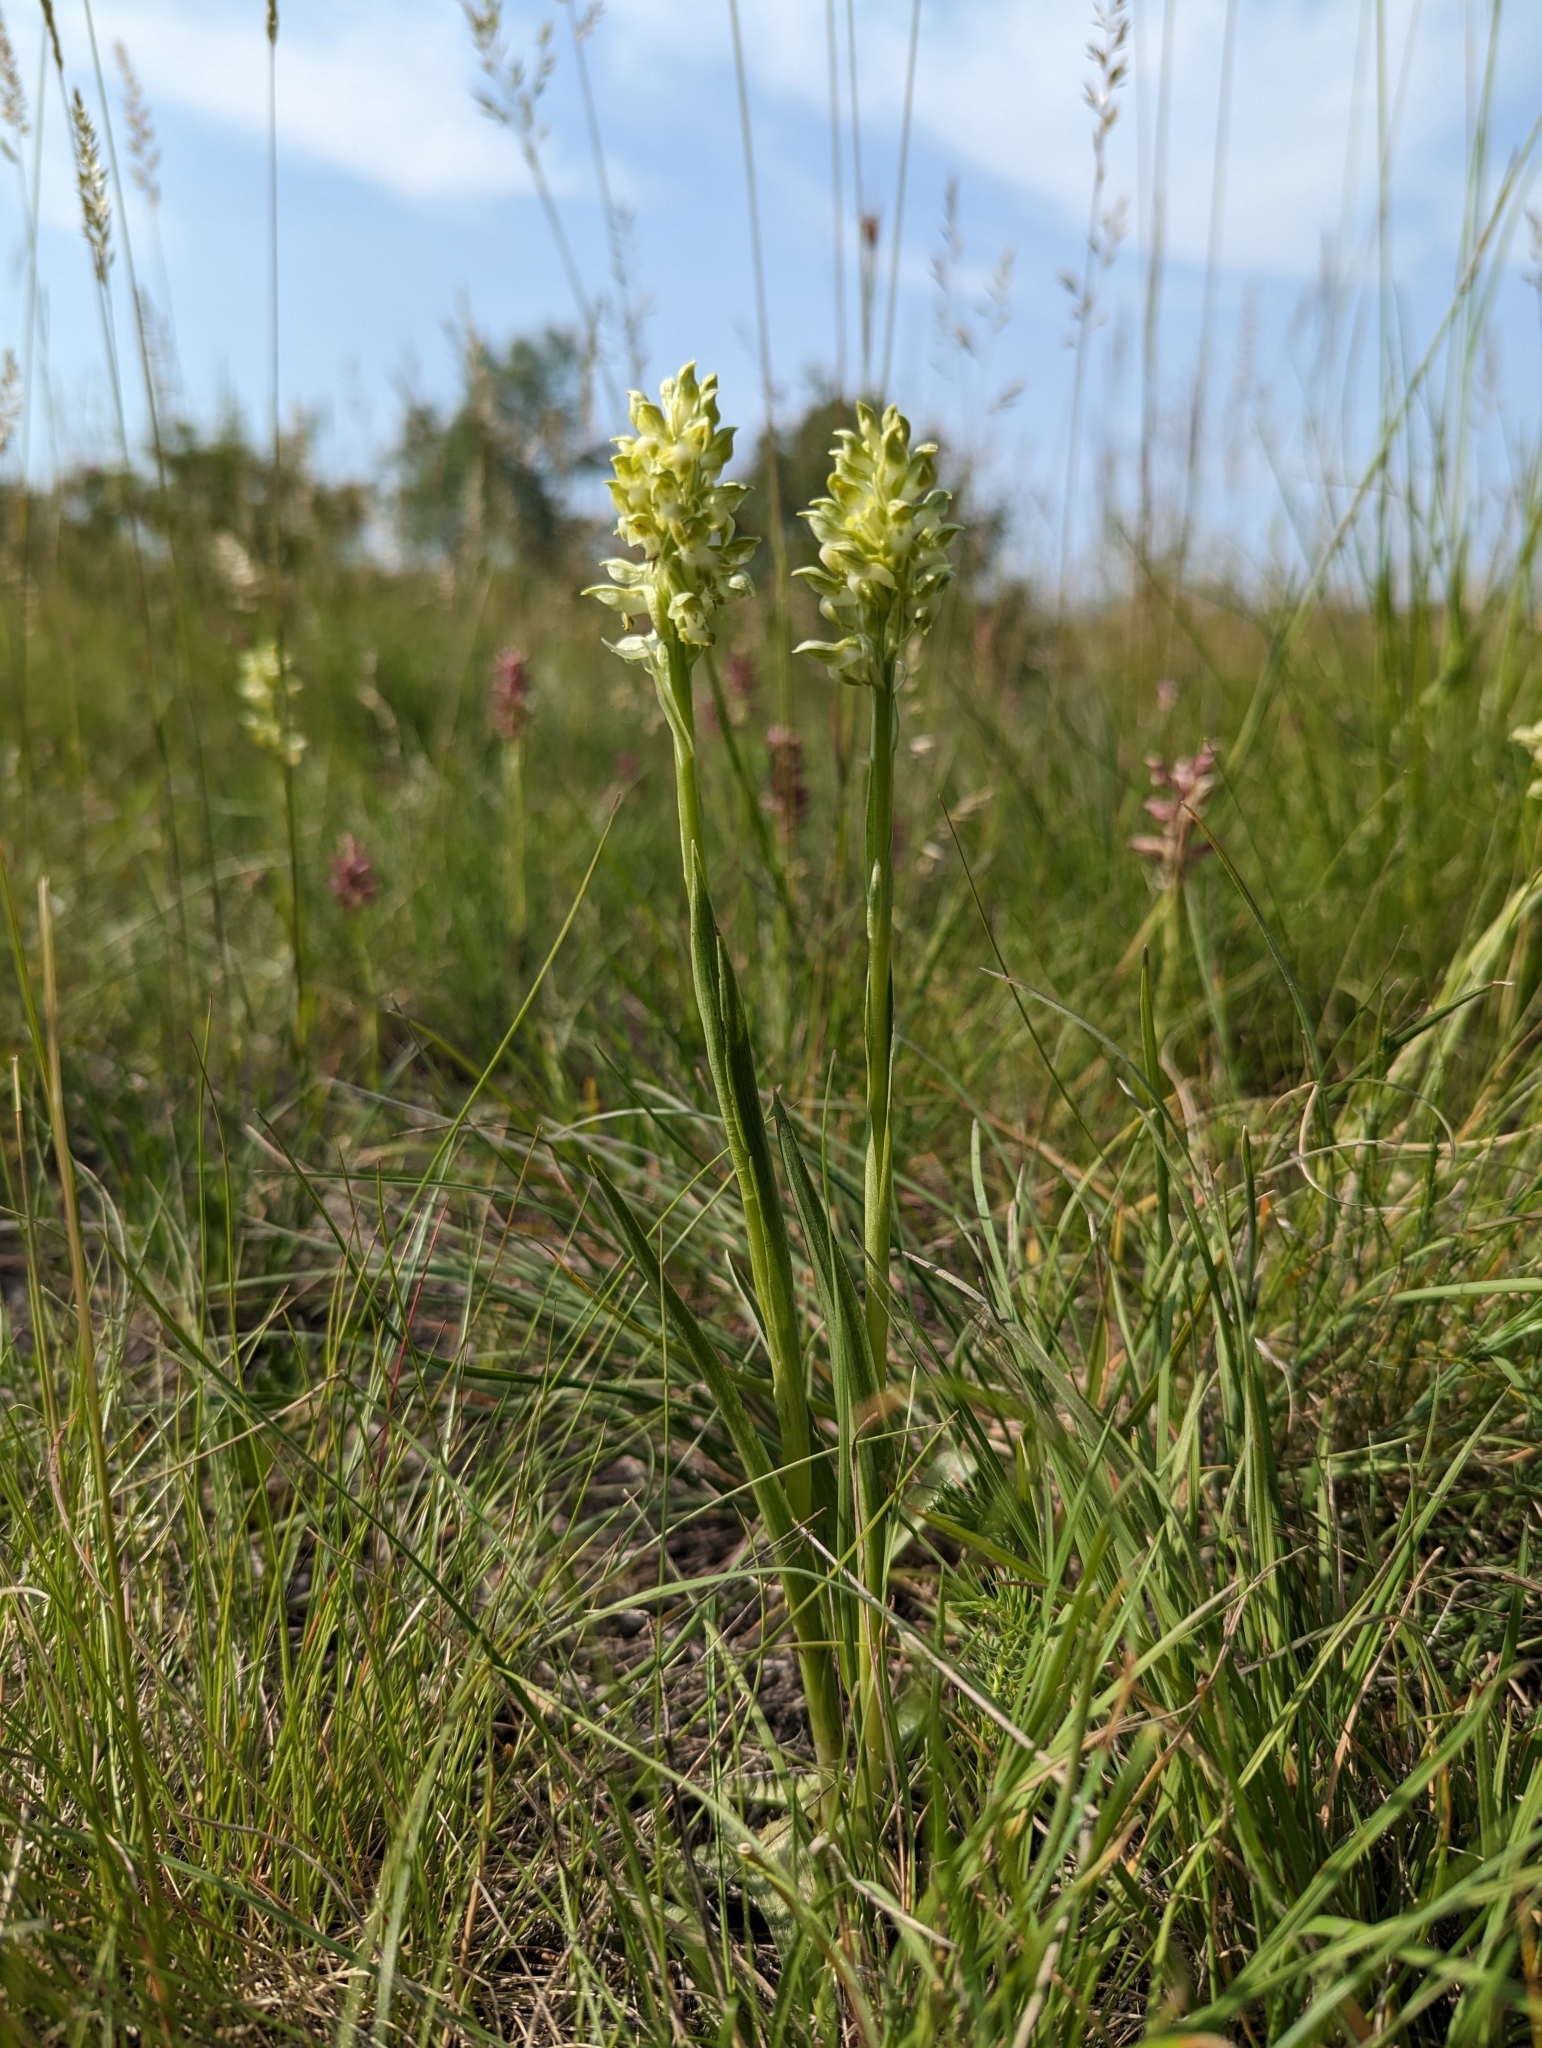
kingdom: Plantae
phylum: Tracheophyta
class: Liliopsida
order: Asparagales
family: Orchidaceae
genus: Anacamptis
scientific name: Anacamptis coriophora
